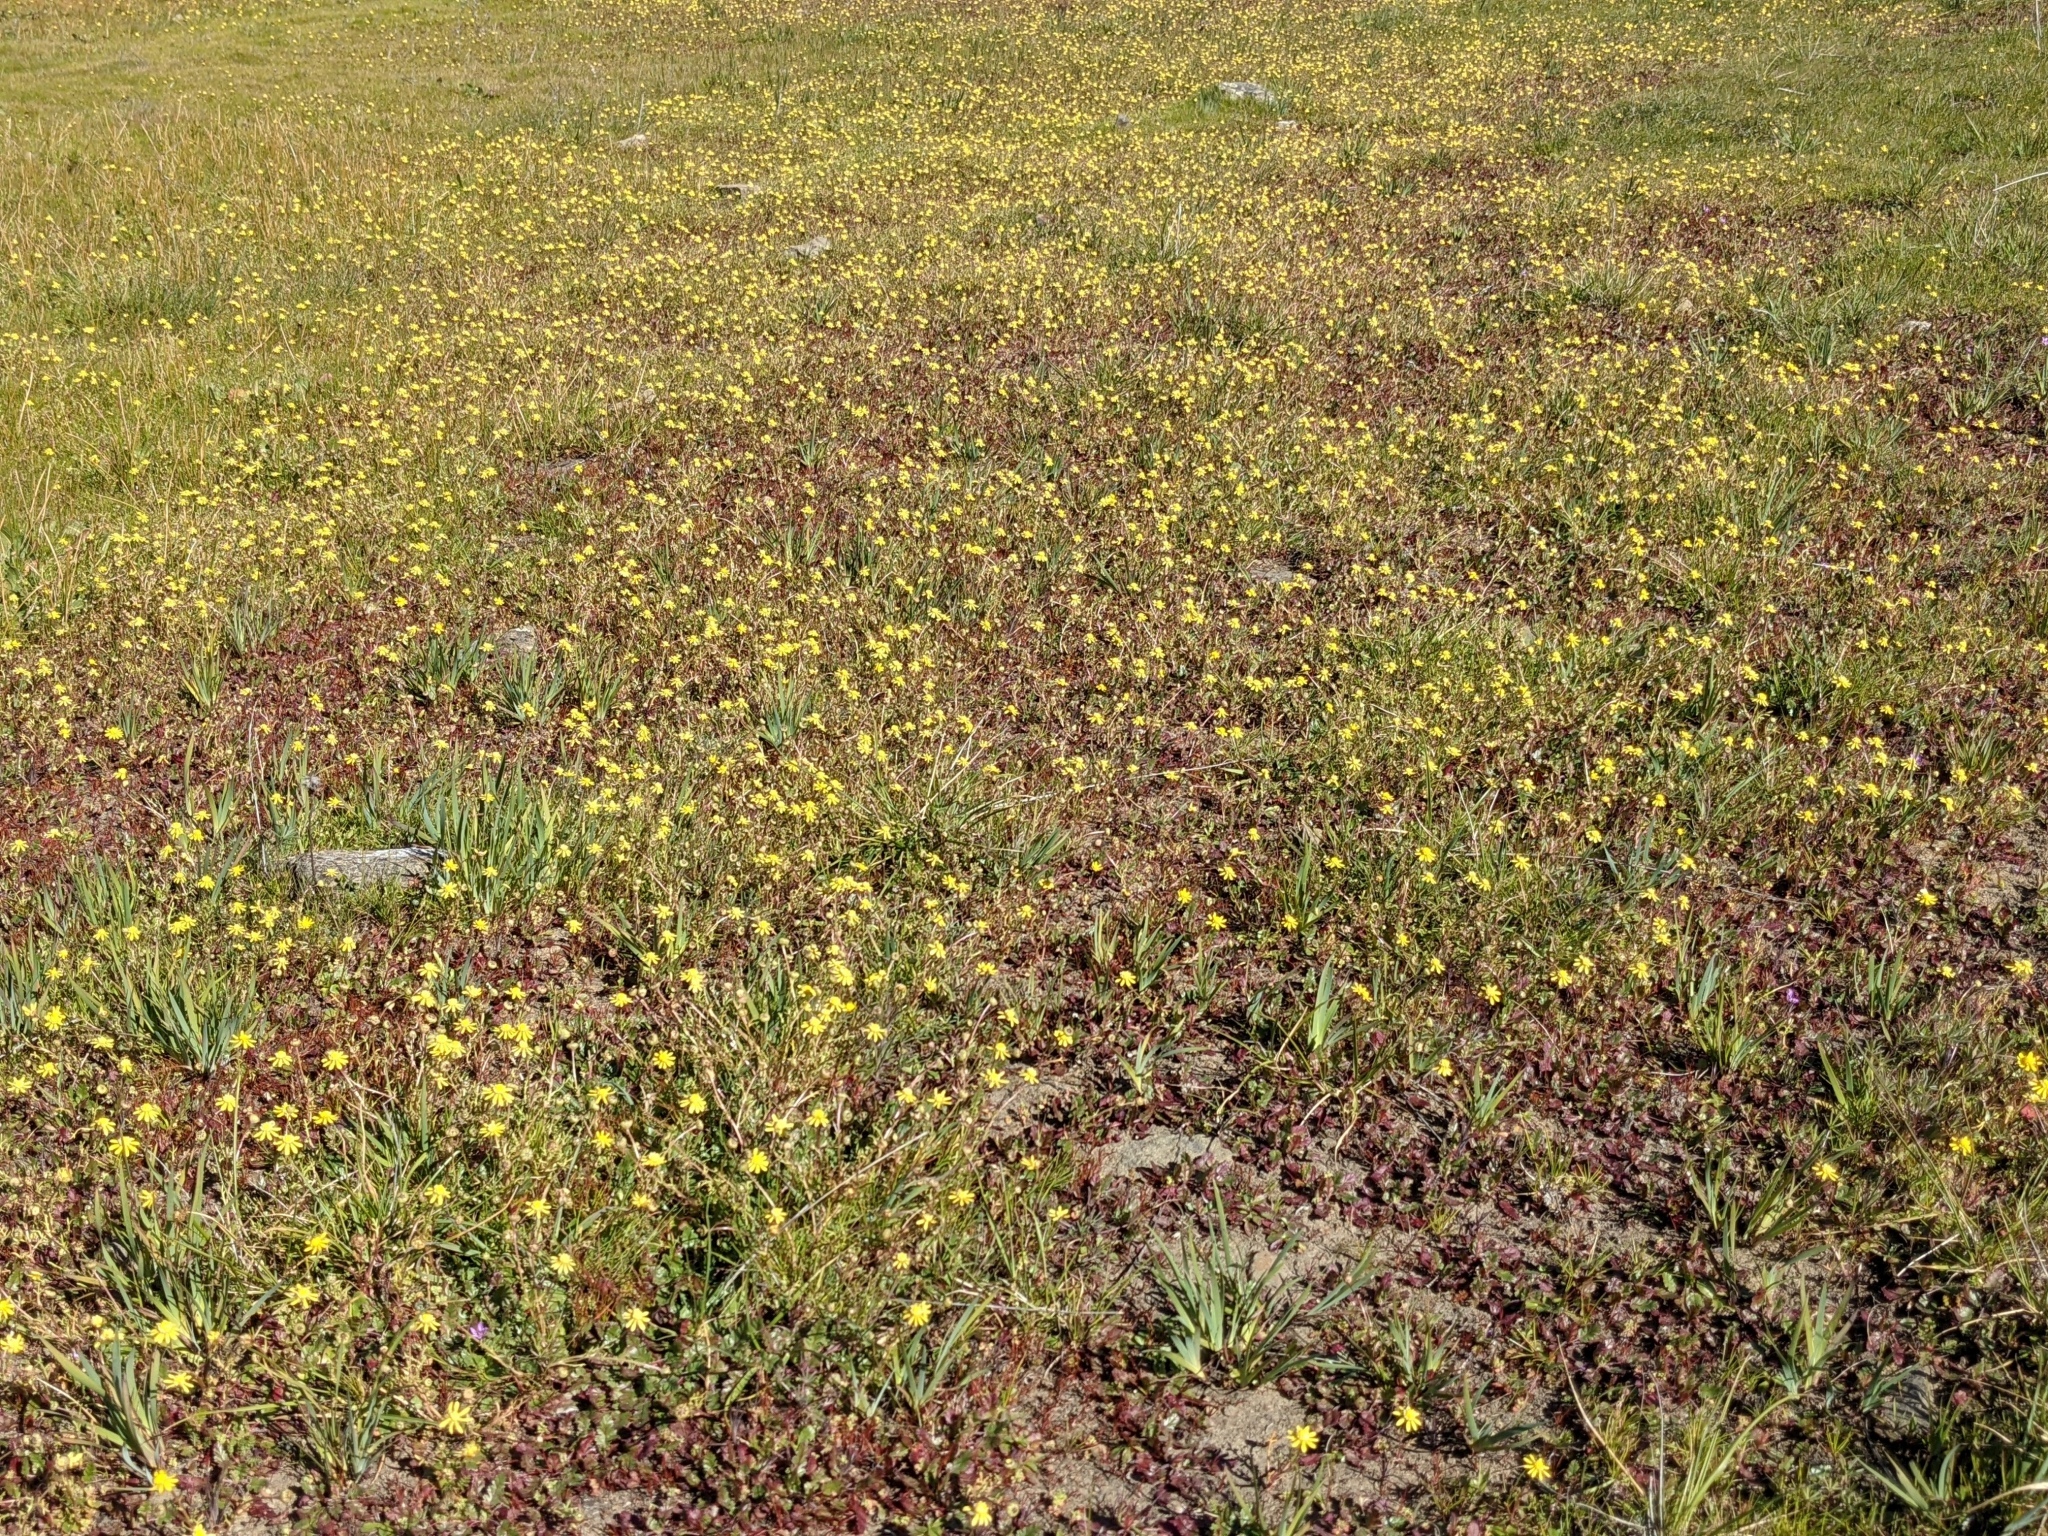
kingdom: Plantae
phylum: Tracheophyta
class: Magnoliopsida
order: Asterales
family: Asteraceae
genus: Blennosperma
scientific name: Blennosperma nanum
